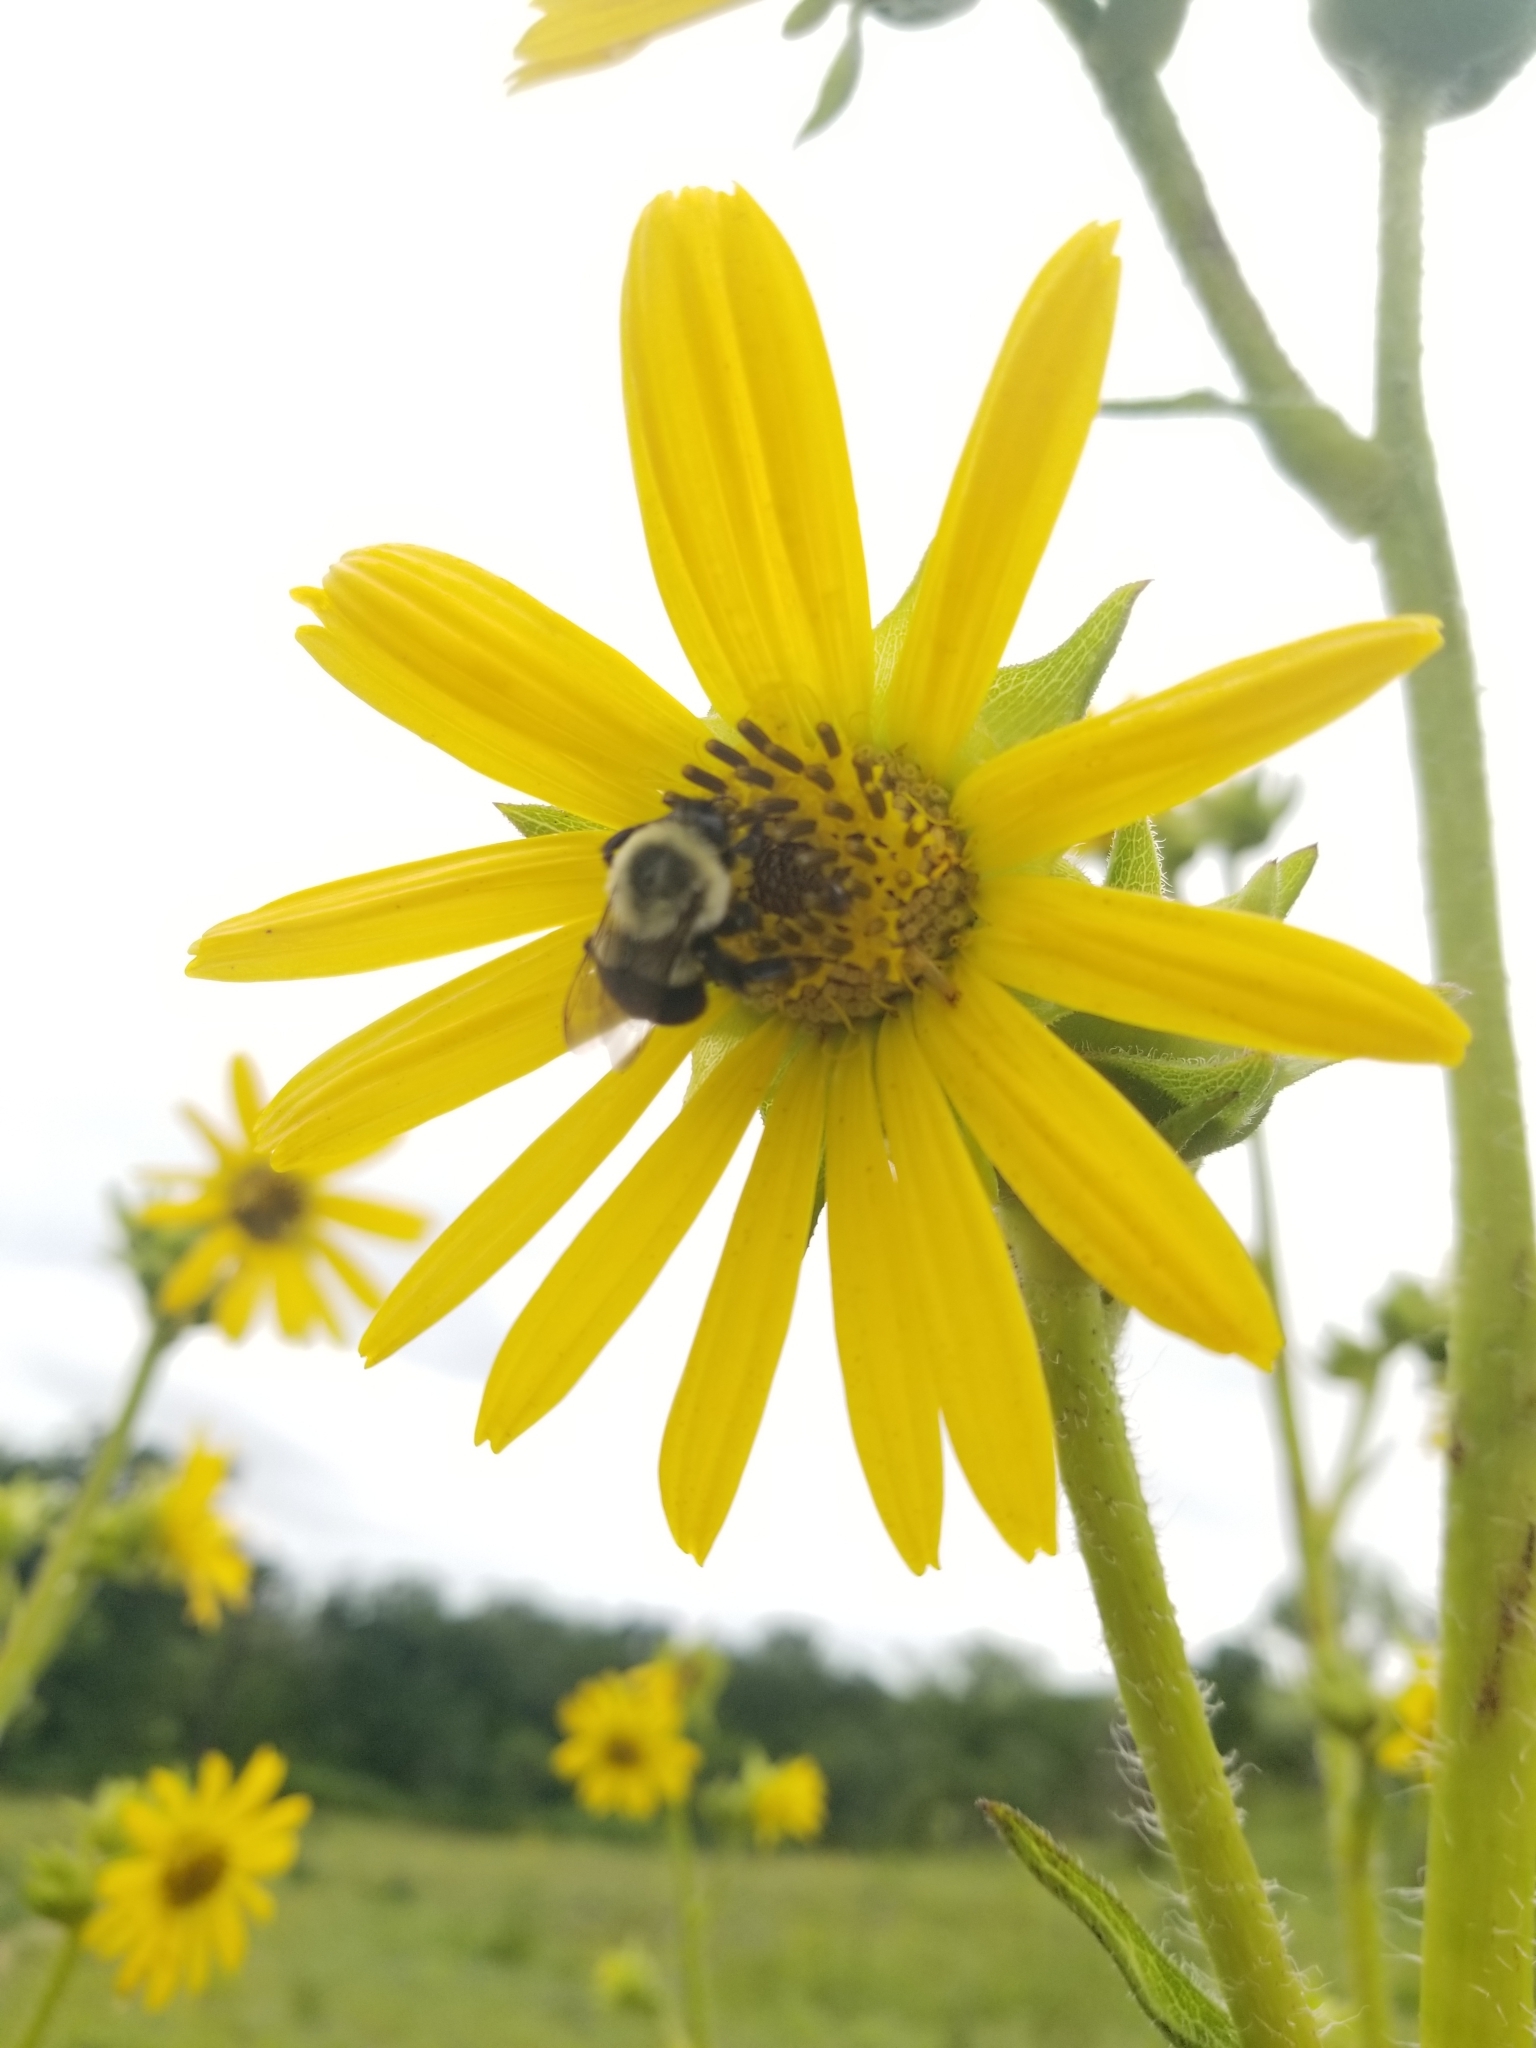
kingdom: Animalia
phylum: Arthropoda
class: Insecta
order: Hymenoptera
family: Apidae
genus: Bombus
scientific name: Bombus impatiens
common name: Common eastern bumble bee
